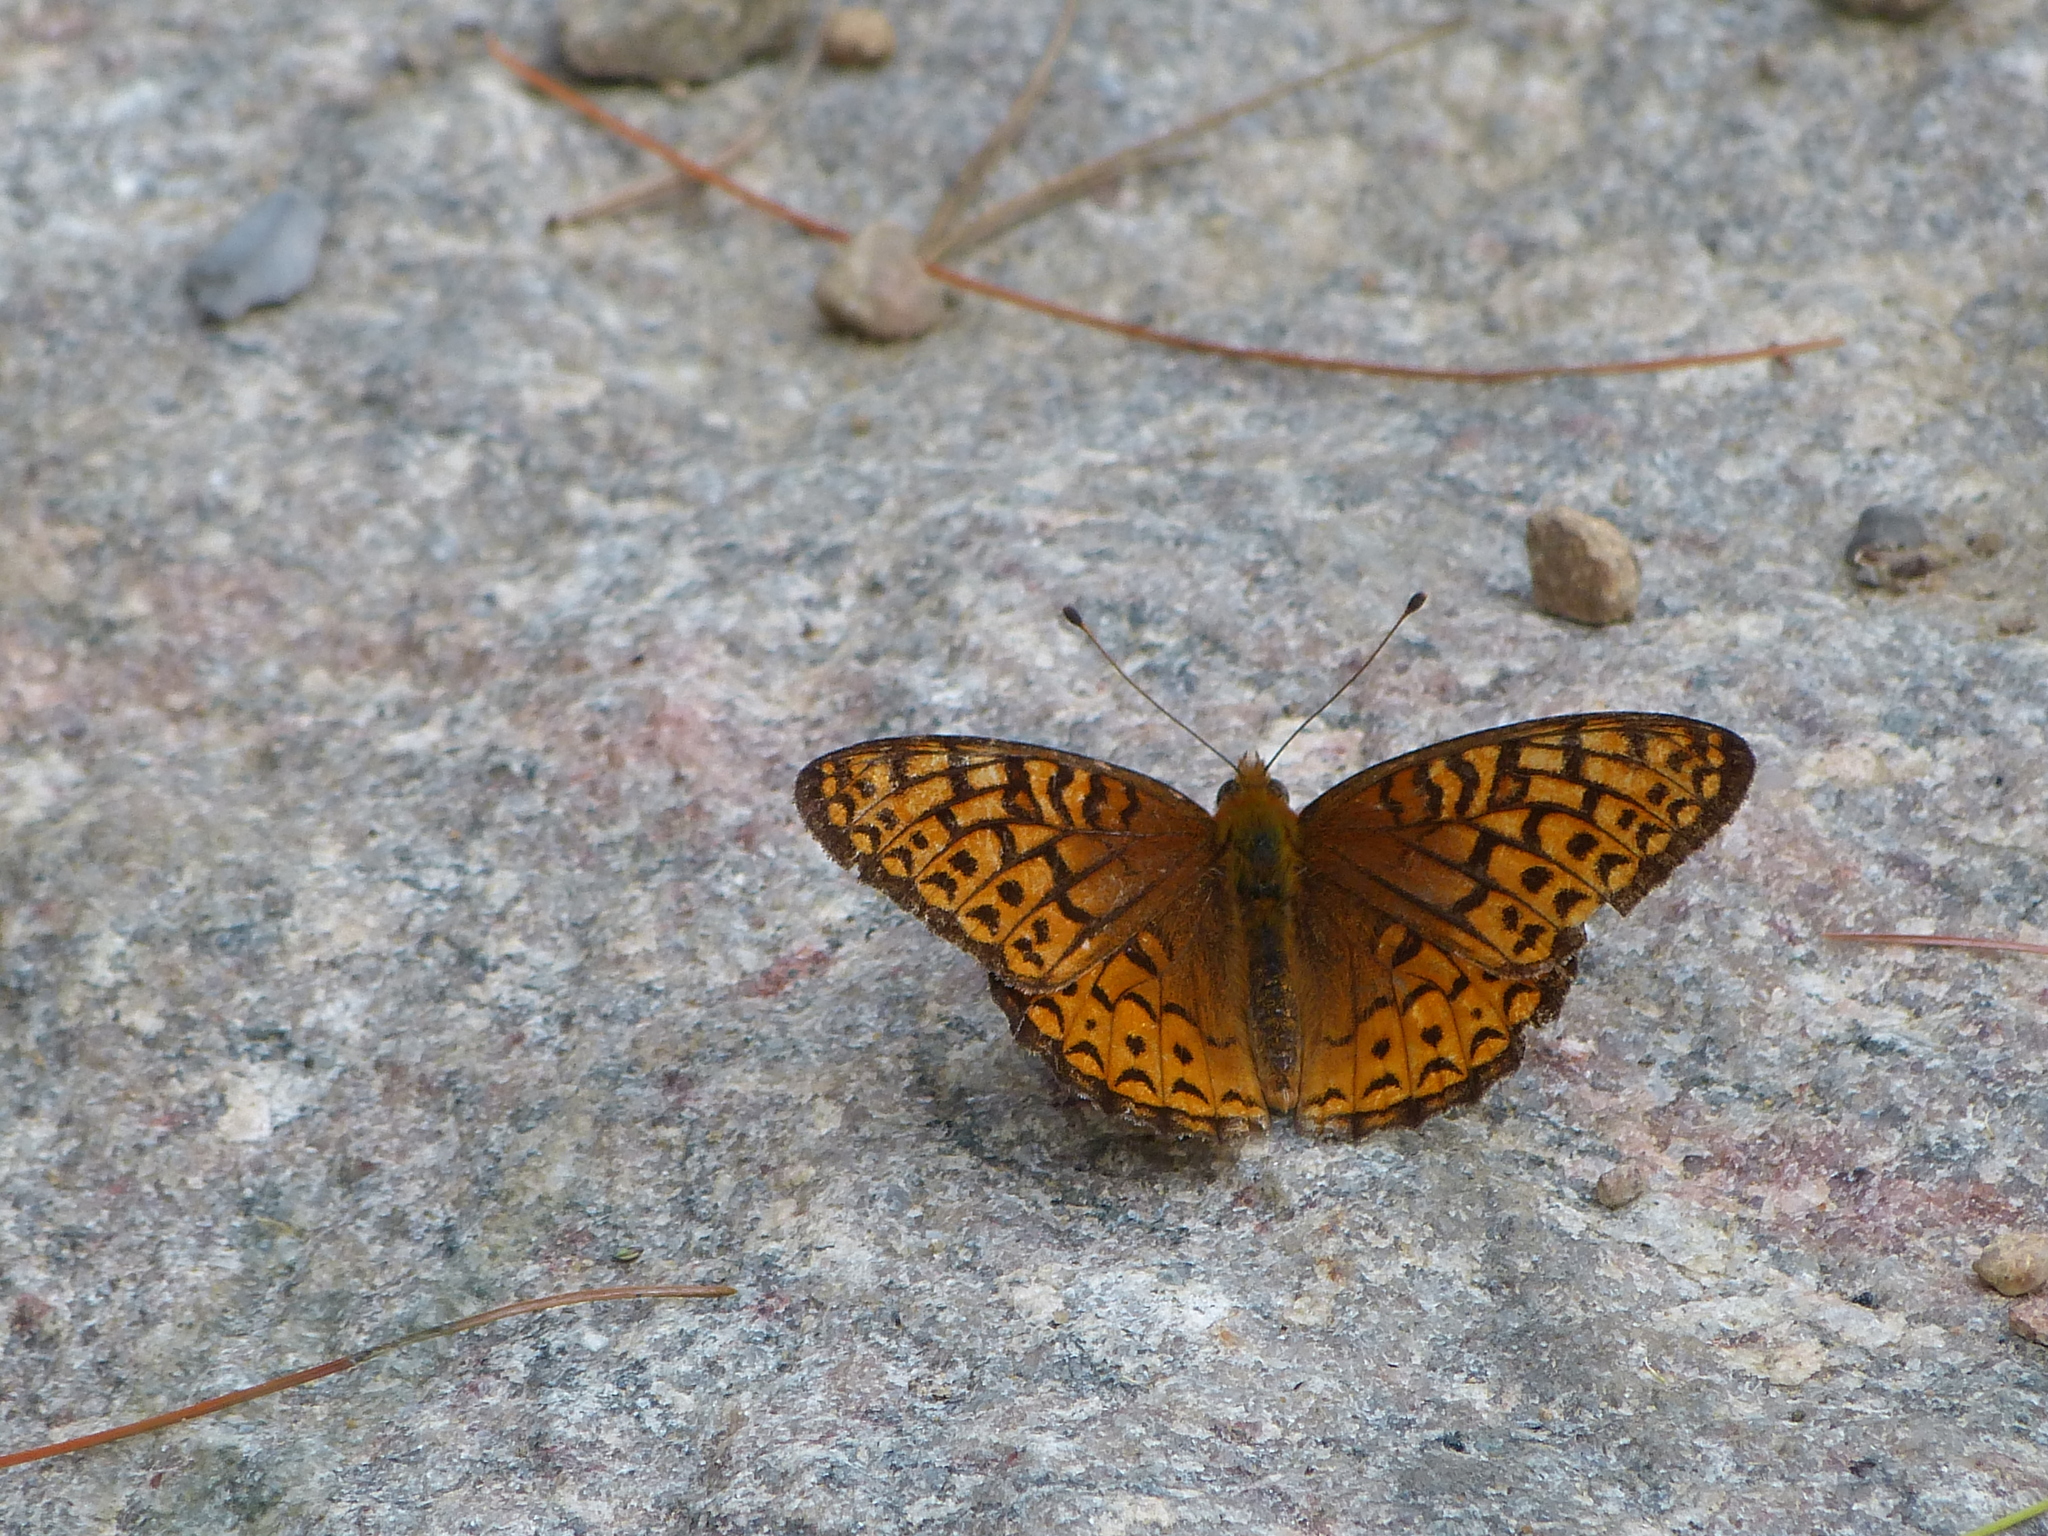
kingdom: Animalia
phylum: Arthropoda
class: Insecta
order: Lepidoptera
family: Nymphalidae
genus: Speyeria
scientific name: Speyeria atlantis
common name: Atlantis fritillary
